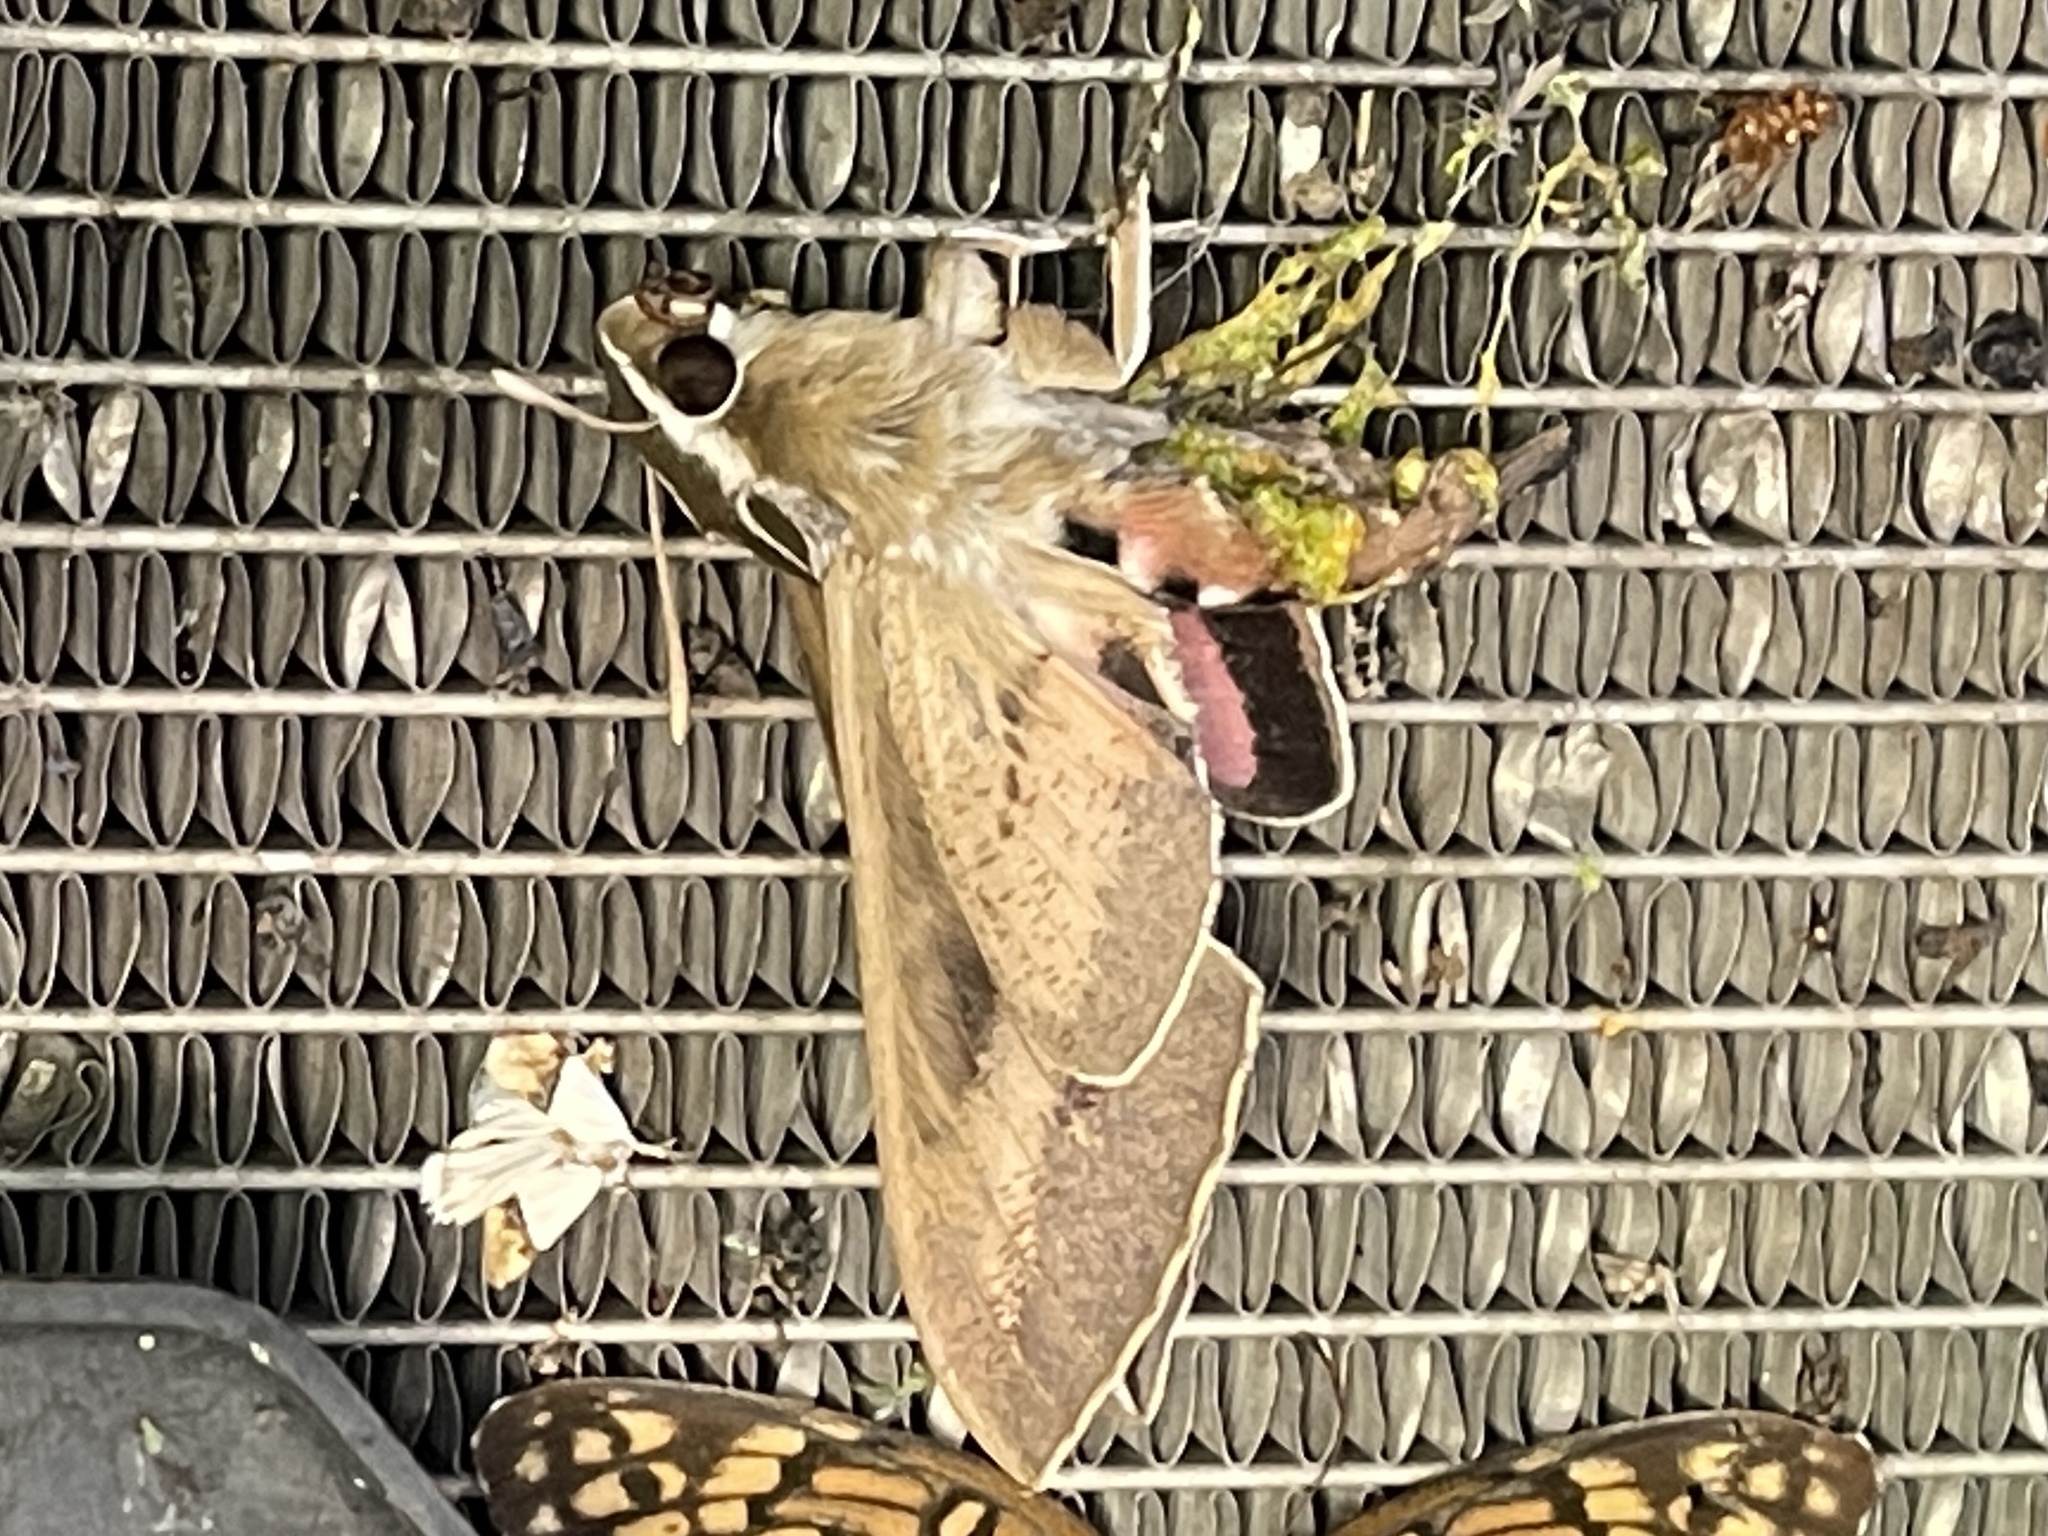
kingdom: Animalia
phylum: Arthropoda
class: Insecta
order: Lepidoptera
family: Sphingidae
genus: Hyles
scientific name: Hyles lineata
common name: White-lined sphinx
